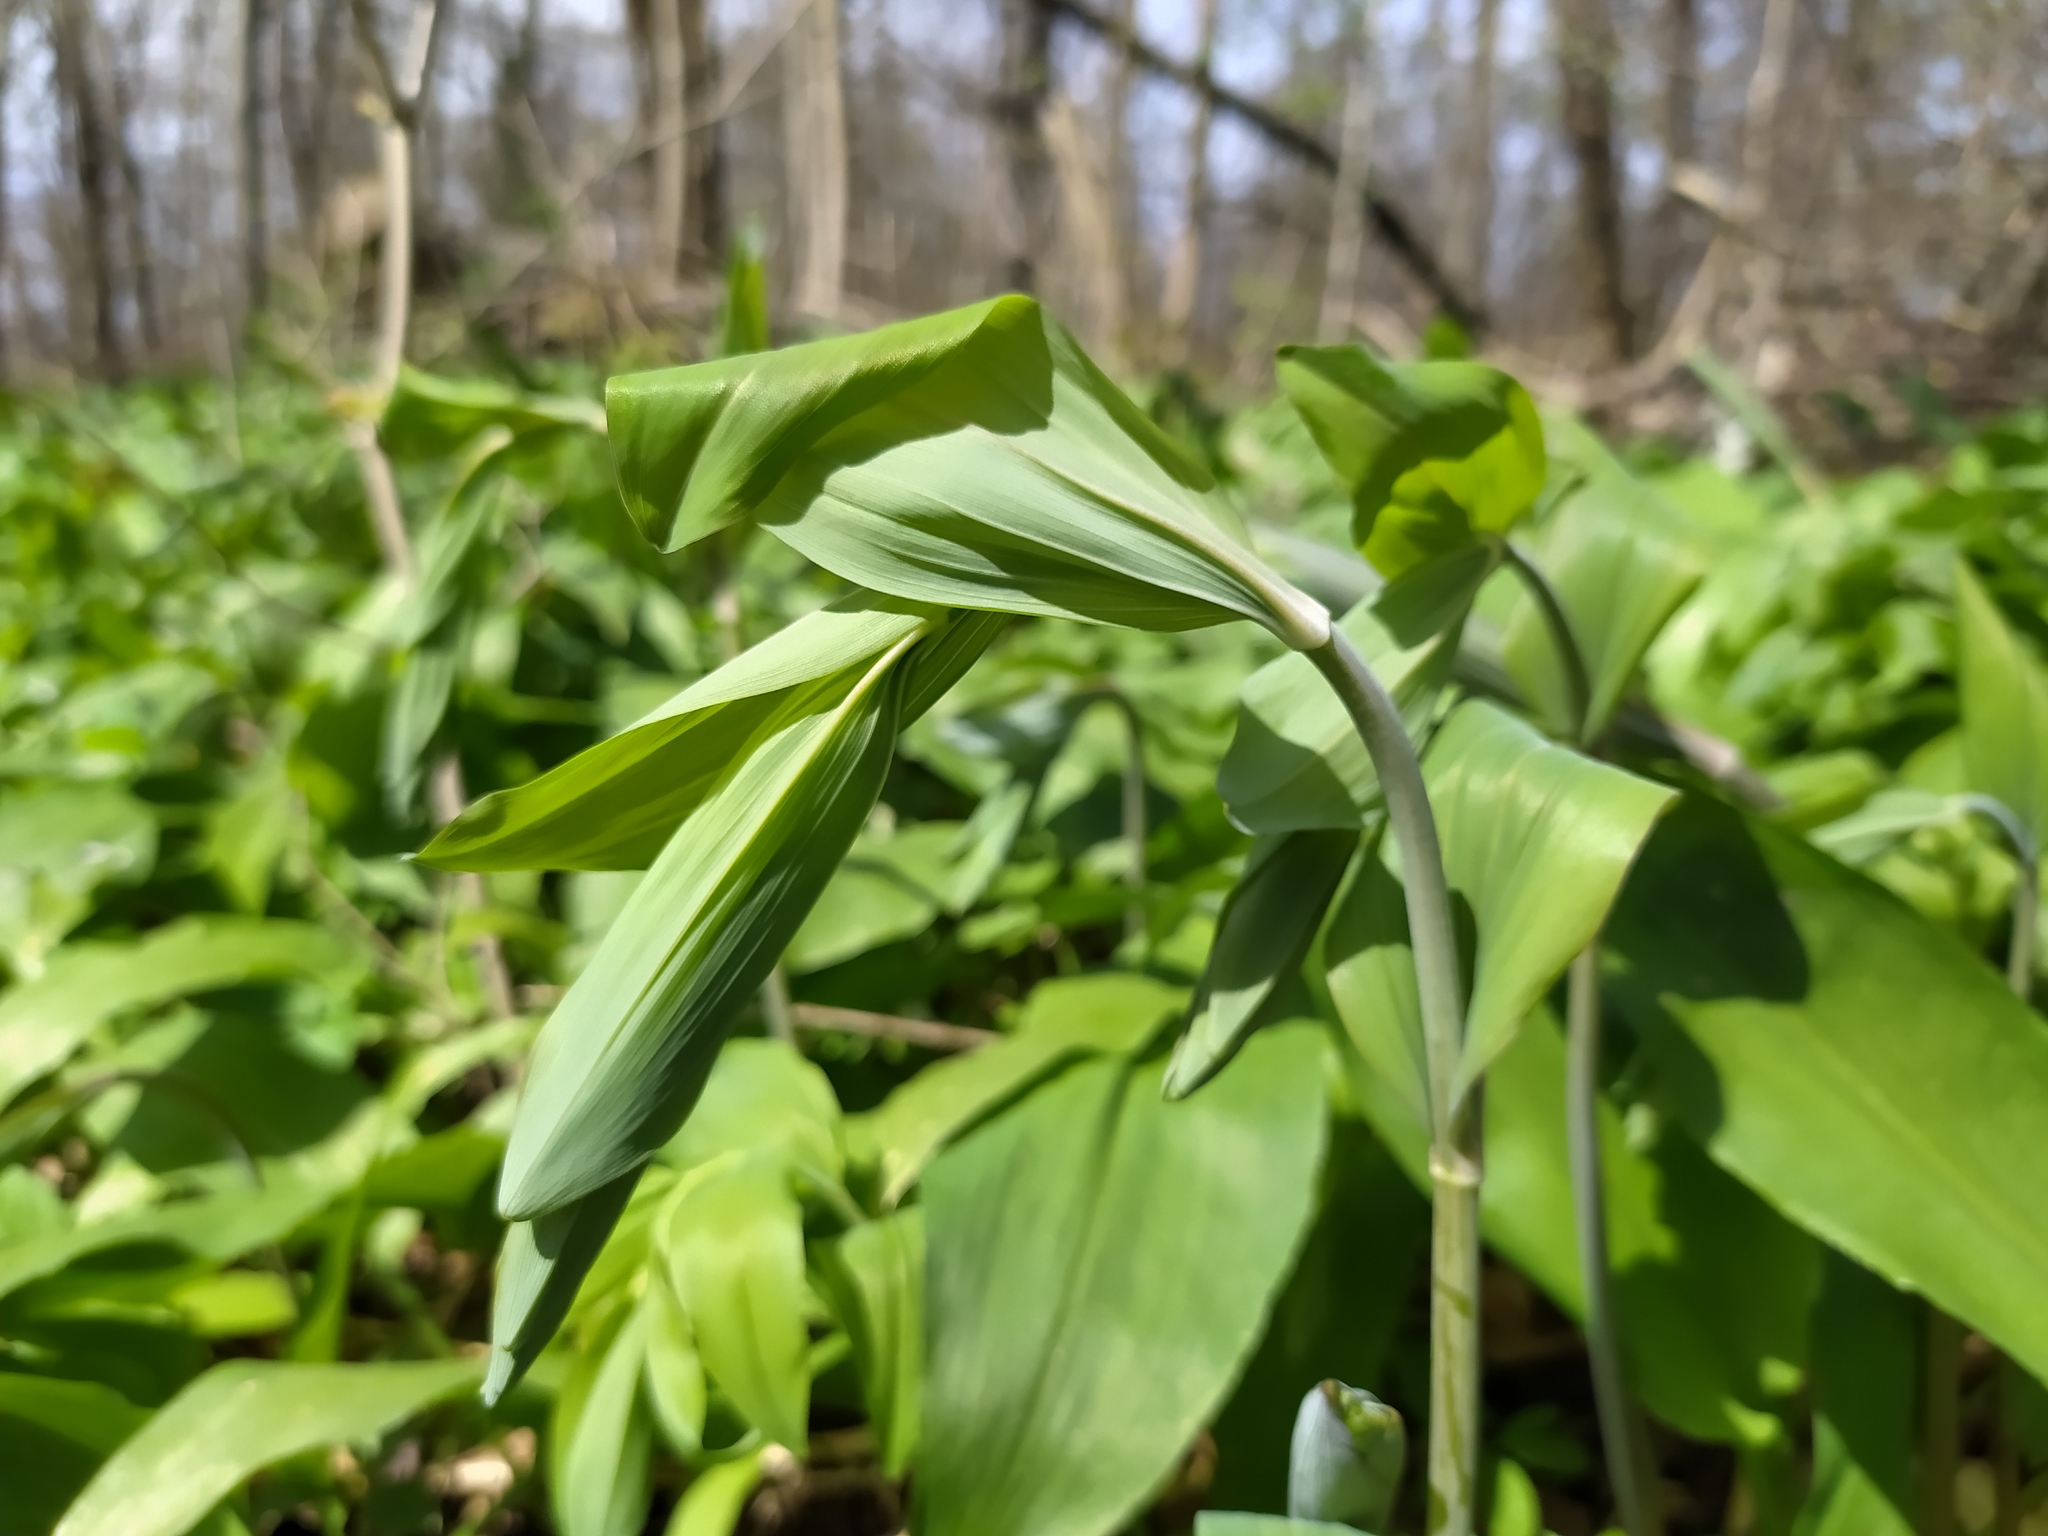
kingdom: Plantae
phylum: Tracheophyta
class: Liliopsida
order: Asparagales
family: Asparagaceae
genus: Polygonatum
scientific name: Polygonatum multiflorum
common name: Solomon's-seal
